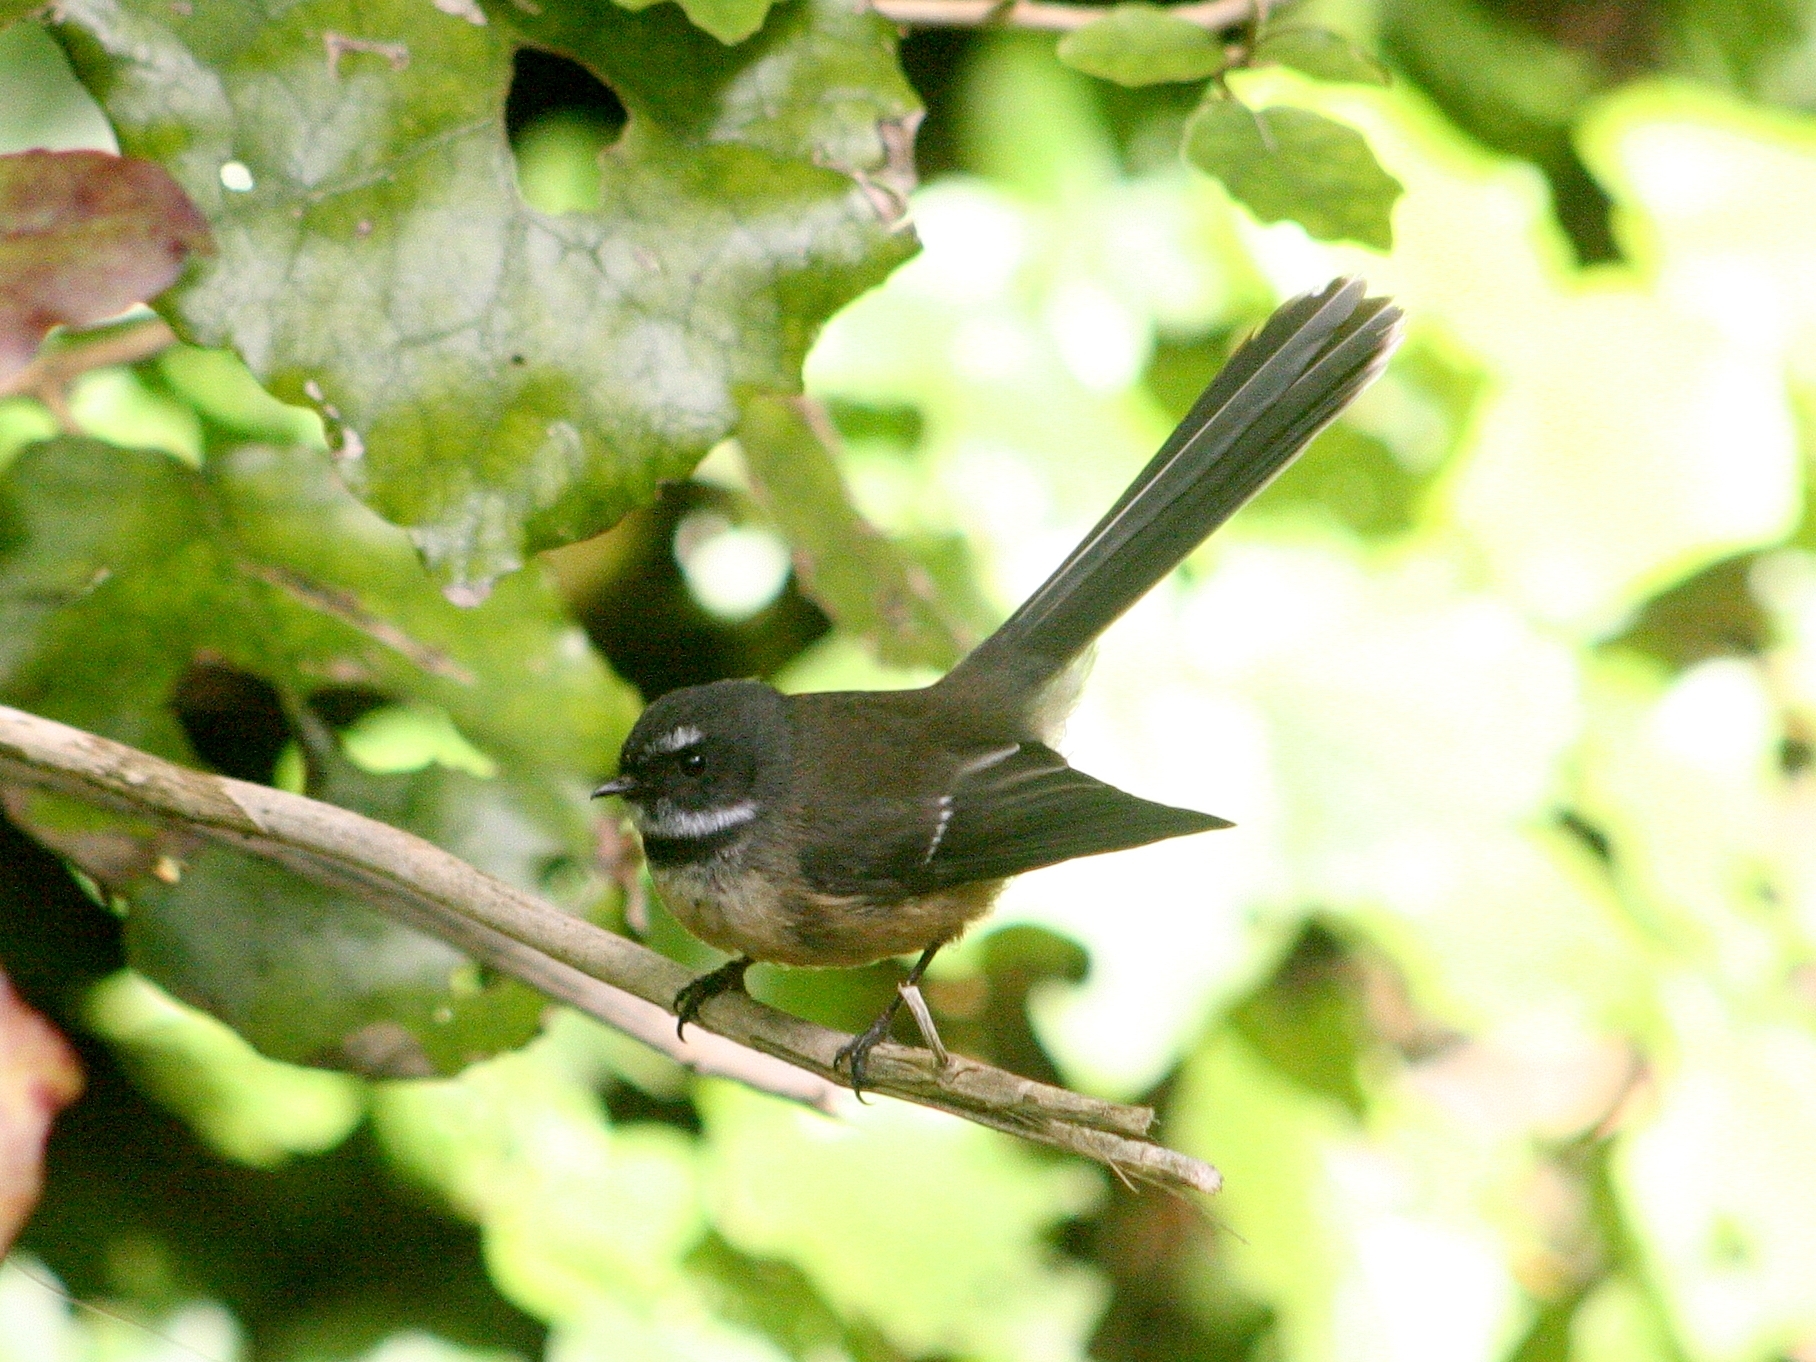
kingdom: Animalia
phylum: Chordata
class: Aves
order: Passeriformes
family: Rhipiduridae
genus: Rhipidura
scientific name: Rhipidura fuliginosa
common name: New zealand fantail
